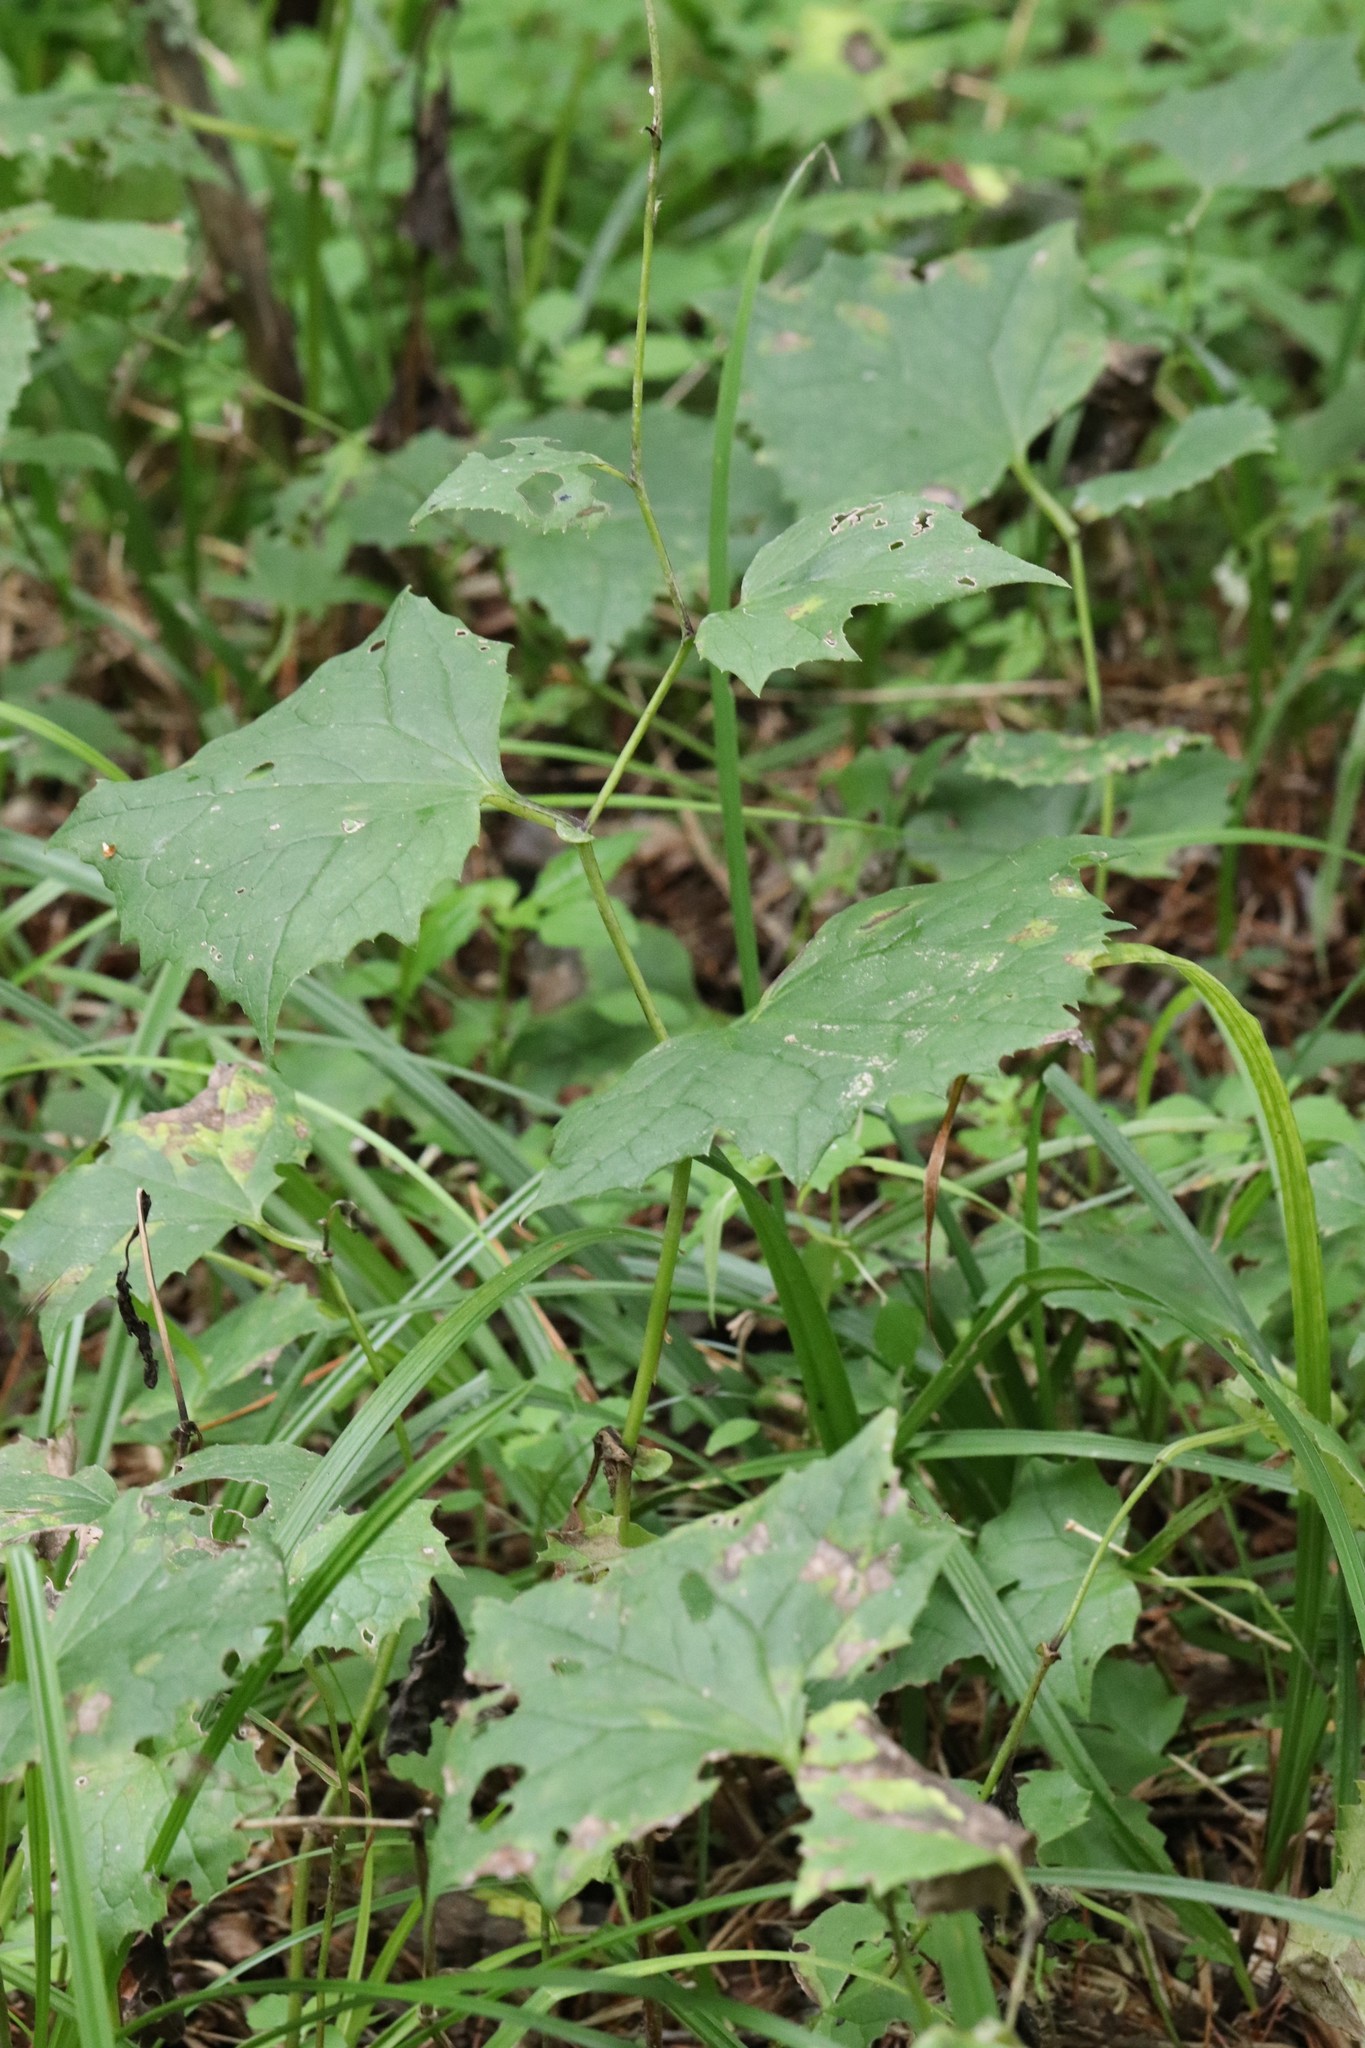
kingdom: Plantae
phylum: Tracheophyta
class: Magnoliopsida
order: Asterales
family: Asteraceae
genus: Parasenecio
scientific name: Parasenecio praetermissus
